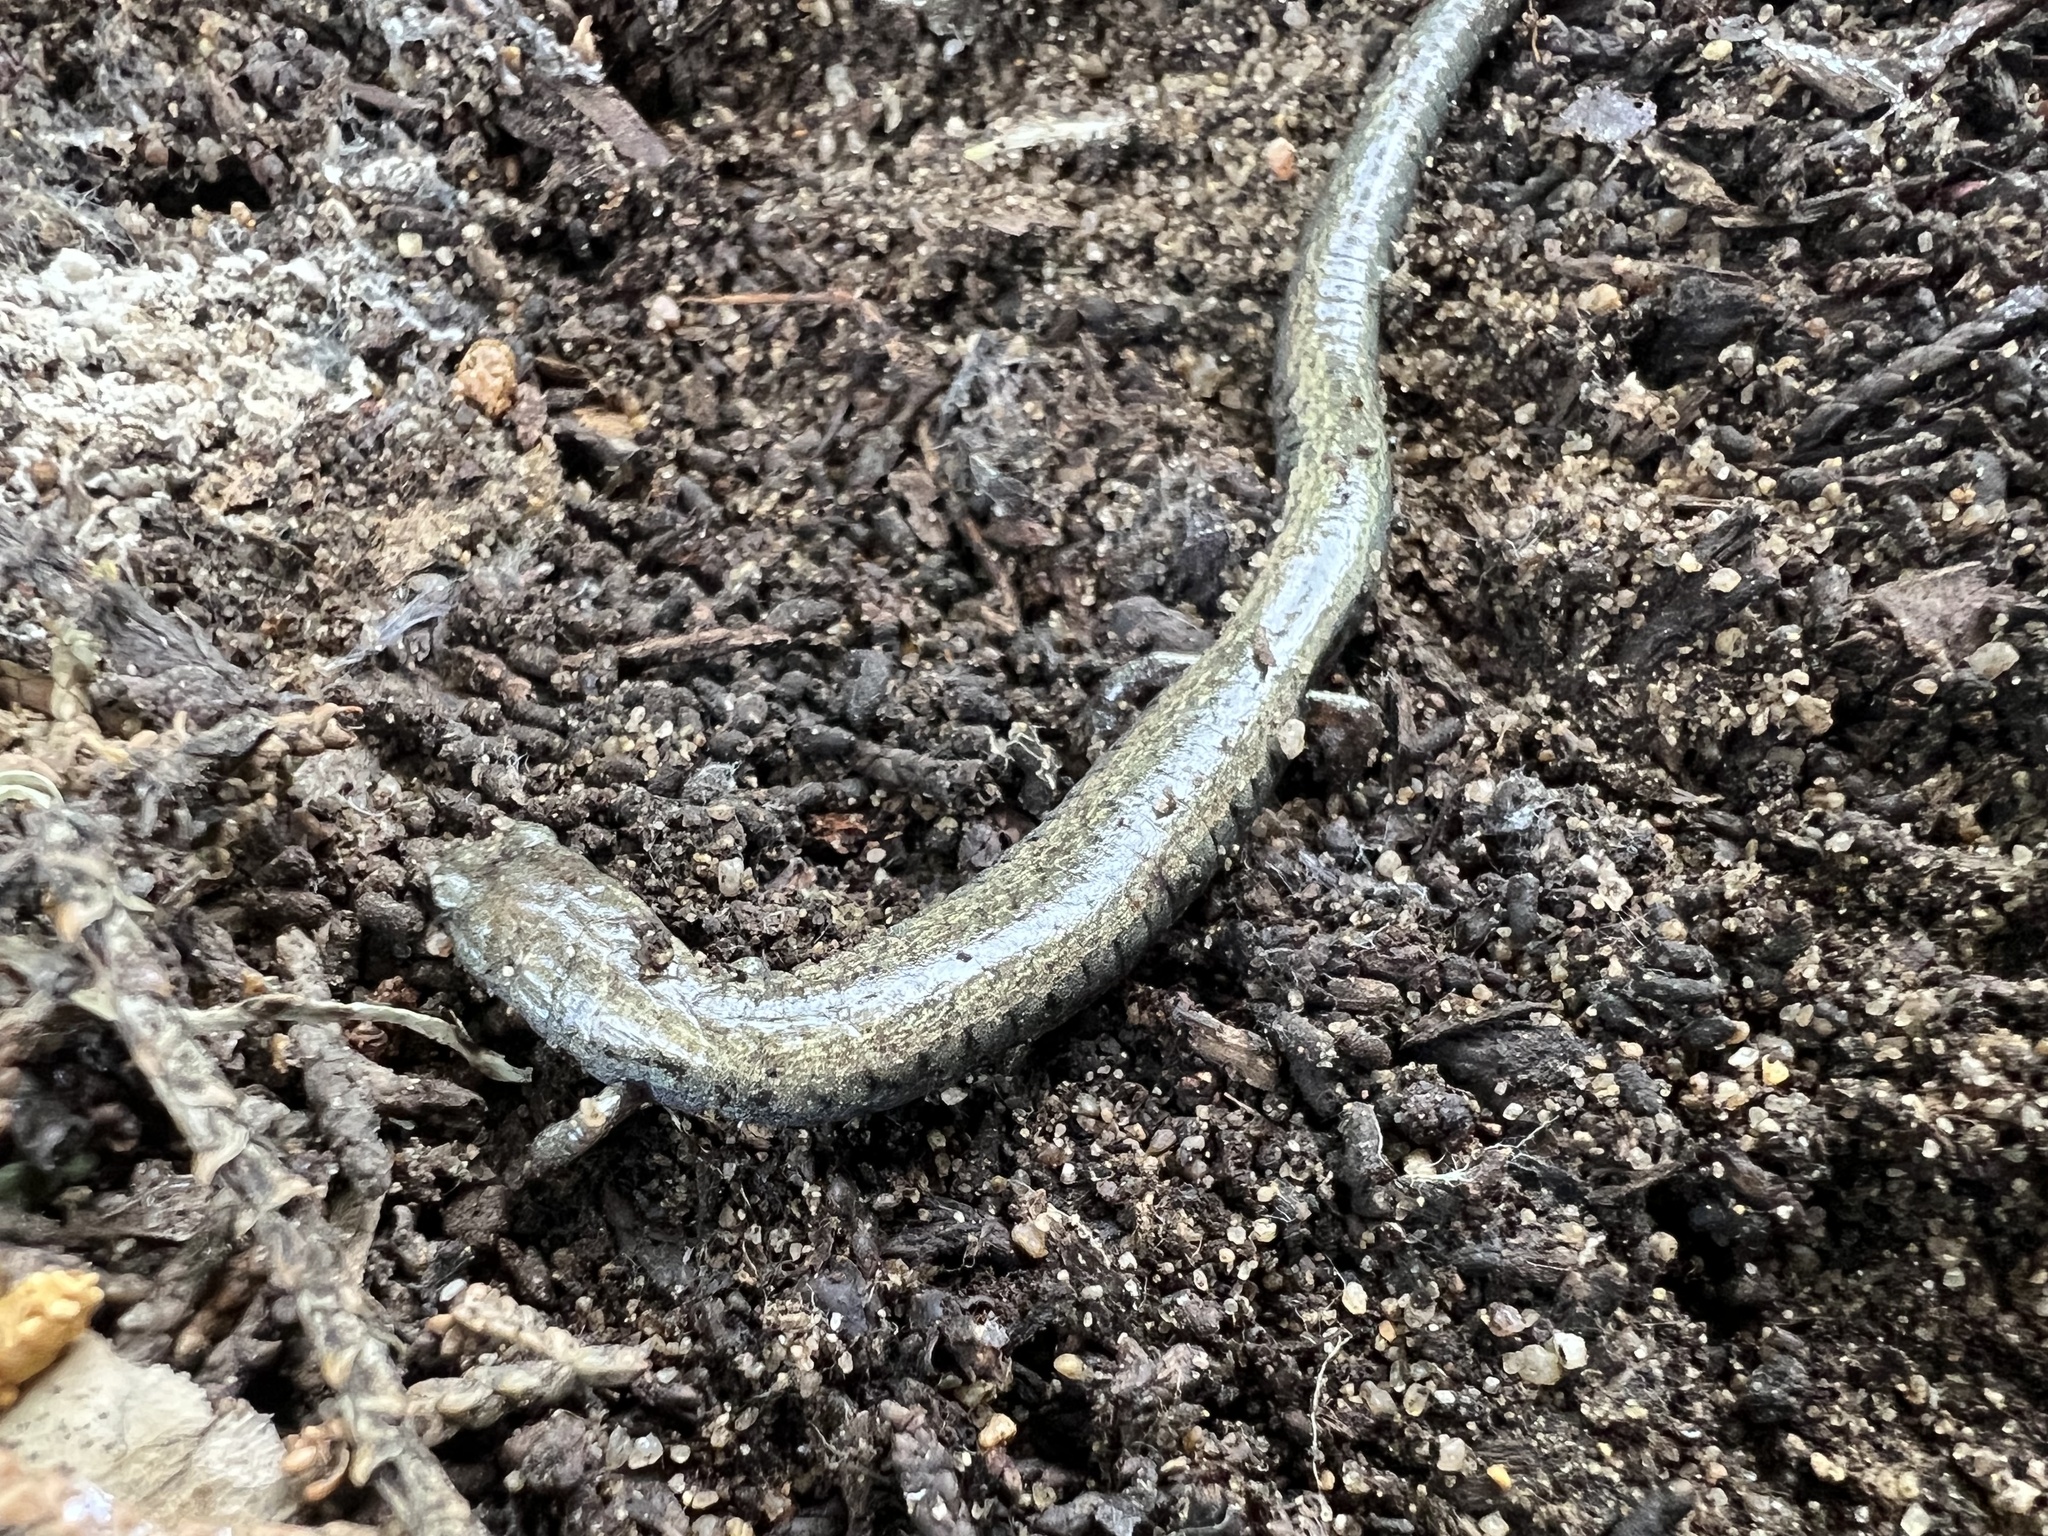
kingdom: Animalia
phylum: Chordata
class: Amphibia
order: Caudata
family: Plethodontidae
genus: Batrachoseps
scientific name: Batrachoseps gavilanensis
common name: Gabilan mountains slender salamander
